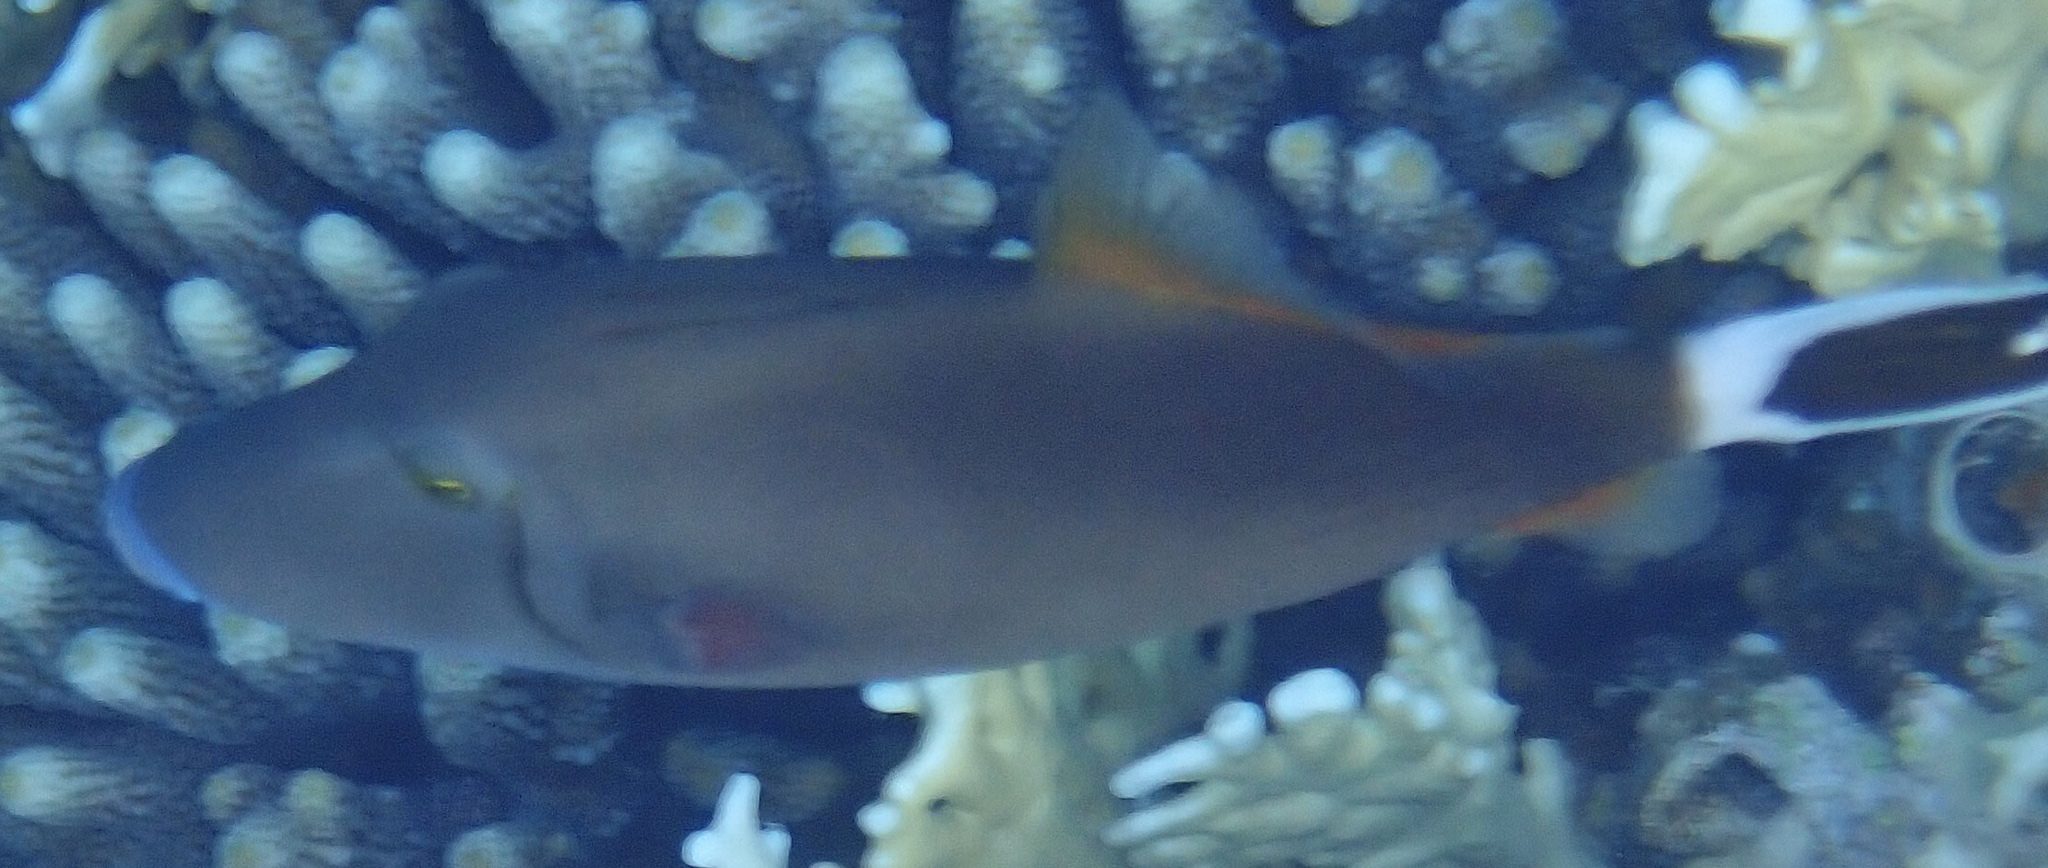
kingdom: Animalia
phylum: Chordata
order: Tetraodontiformes
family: Balistidae
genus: Sufflamen
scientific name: Sufflamen albicaudatum
